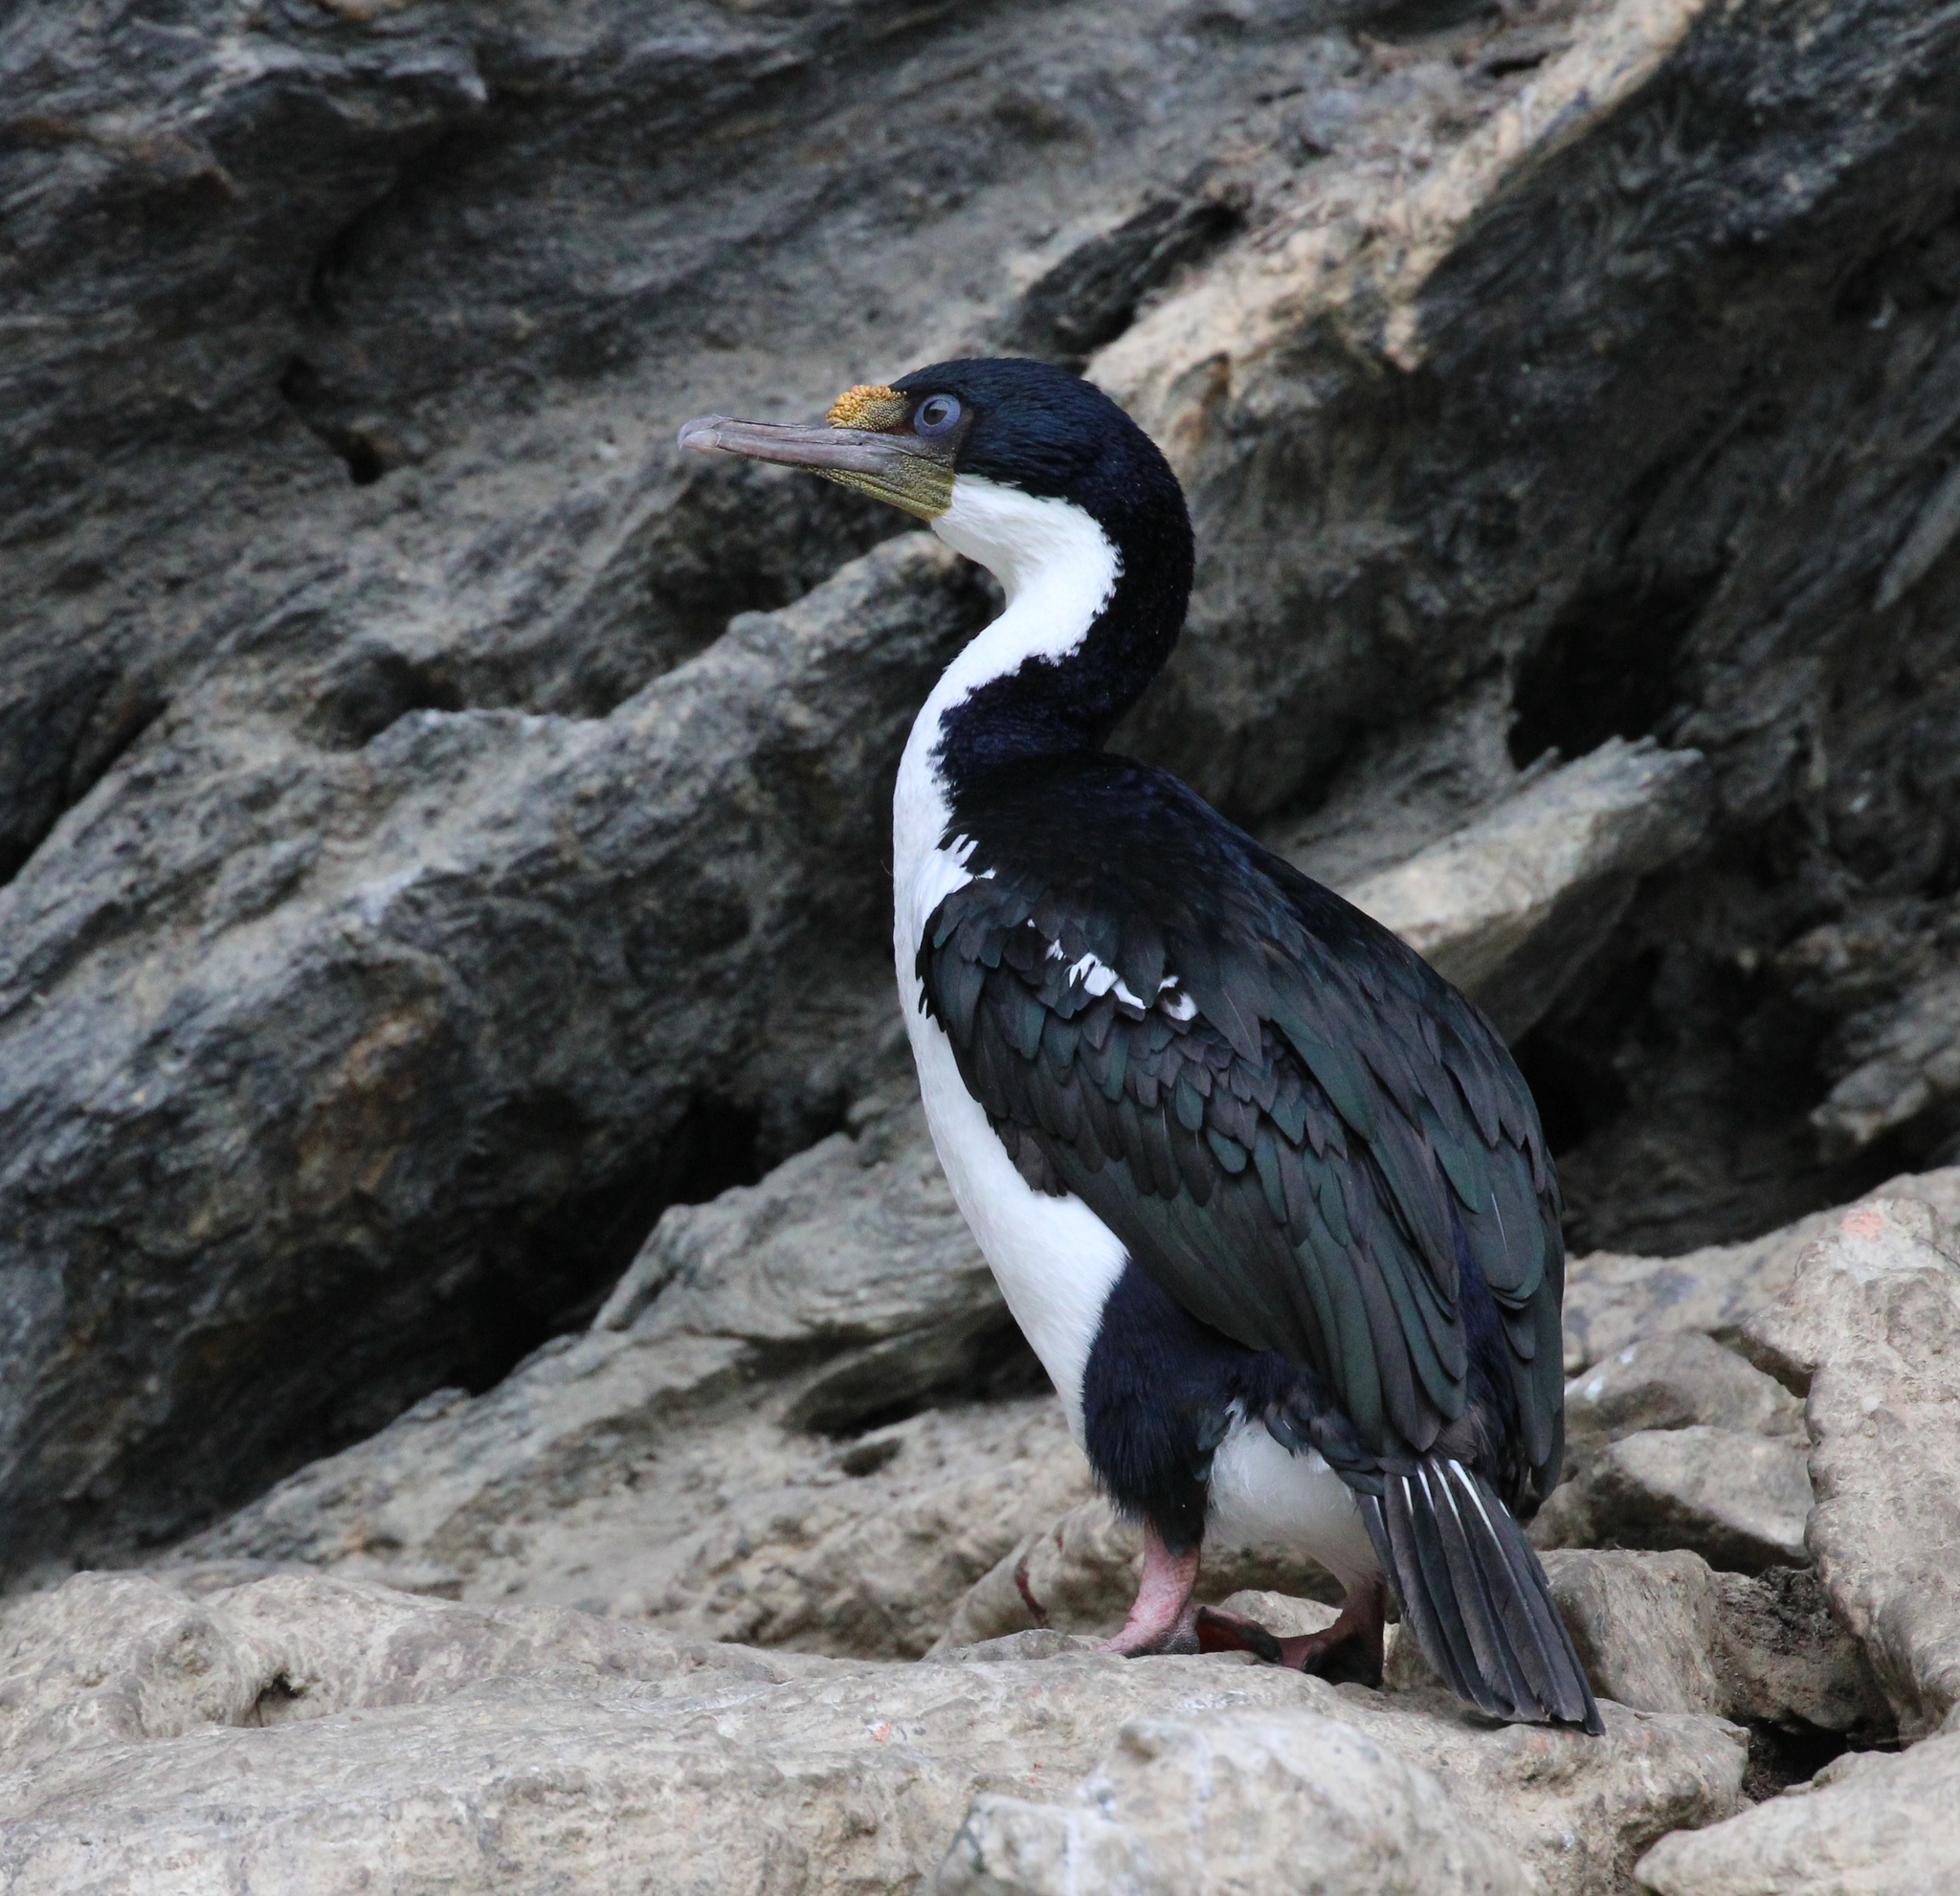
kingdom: Animalia
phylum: Chordata
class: Aves
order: Suliformes
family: Phalacrocoracidae
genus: Leucocarbo
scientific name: Leucocarbo albiventer
